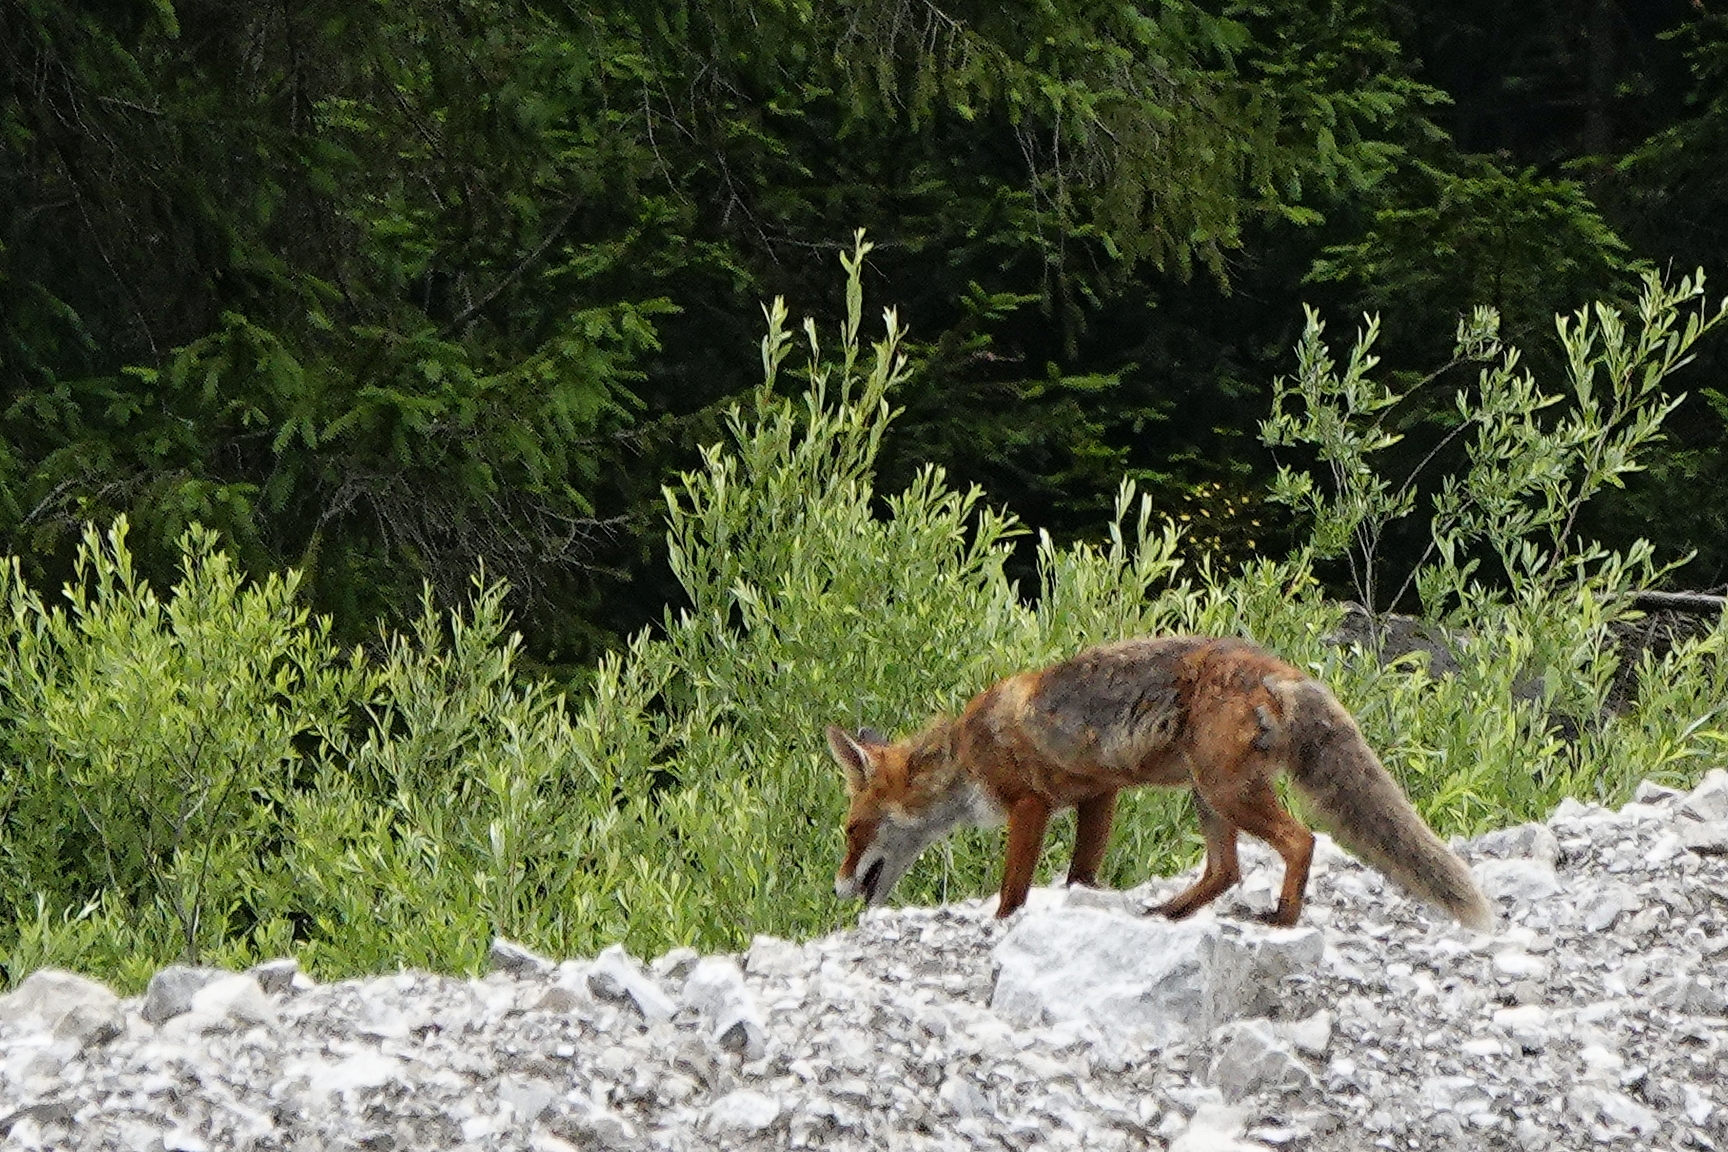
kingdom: Animalia
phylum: Chordata
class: Mammalia
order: Carnivora
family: Canidae
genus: Vulpes
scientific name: Vulpes vulpes
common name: Red fox
